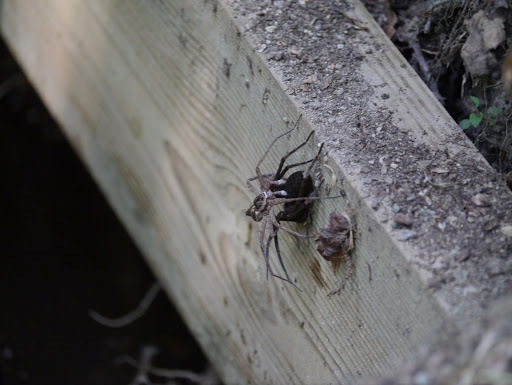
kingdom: Animalia
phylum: Arthropoda
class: Arachnida
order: Araneae
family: Pisauridae
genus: Dolomedes
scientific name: Dolomedes vittatus
